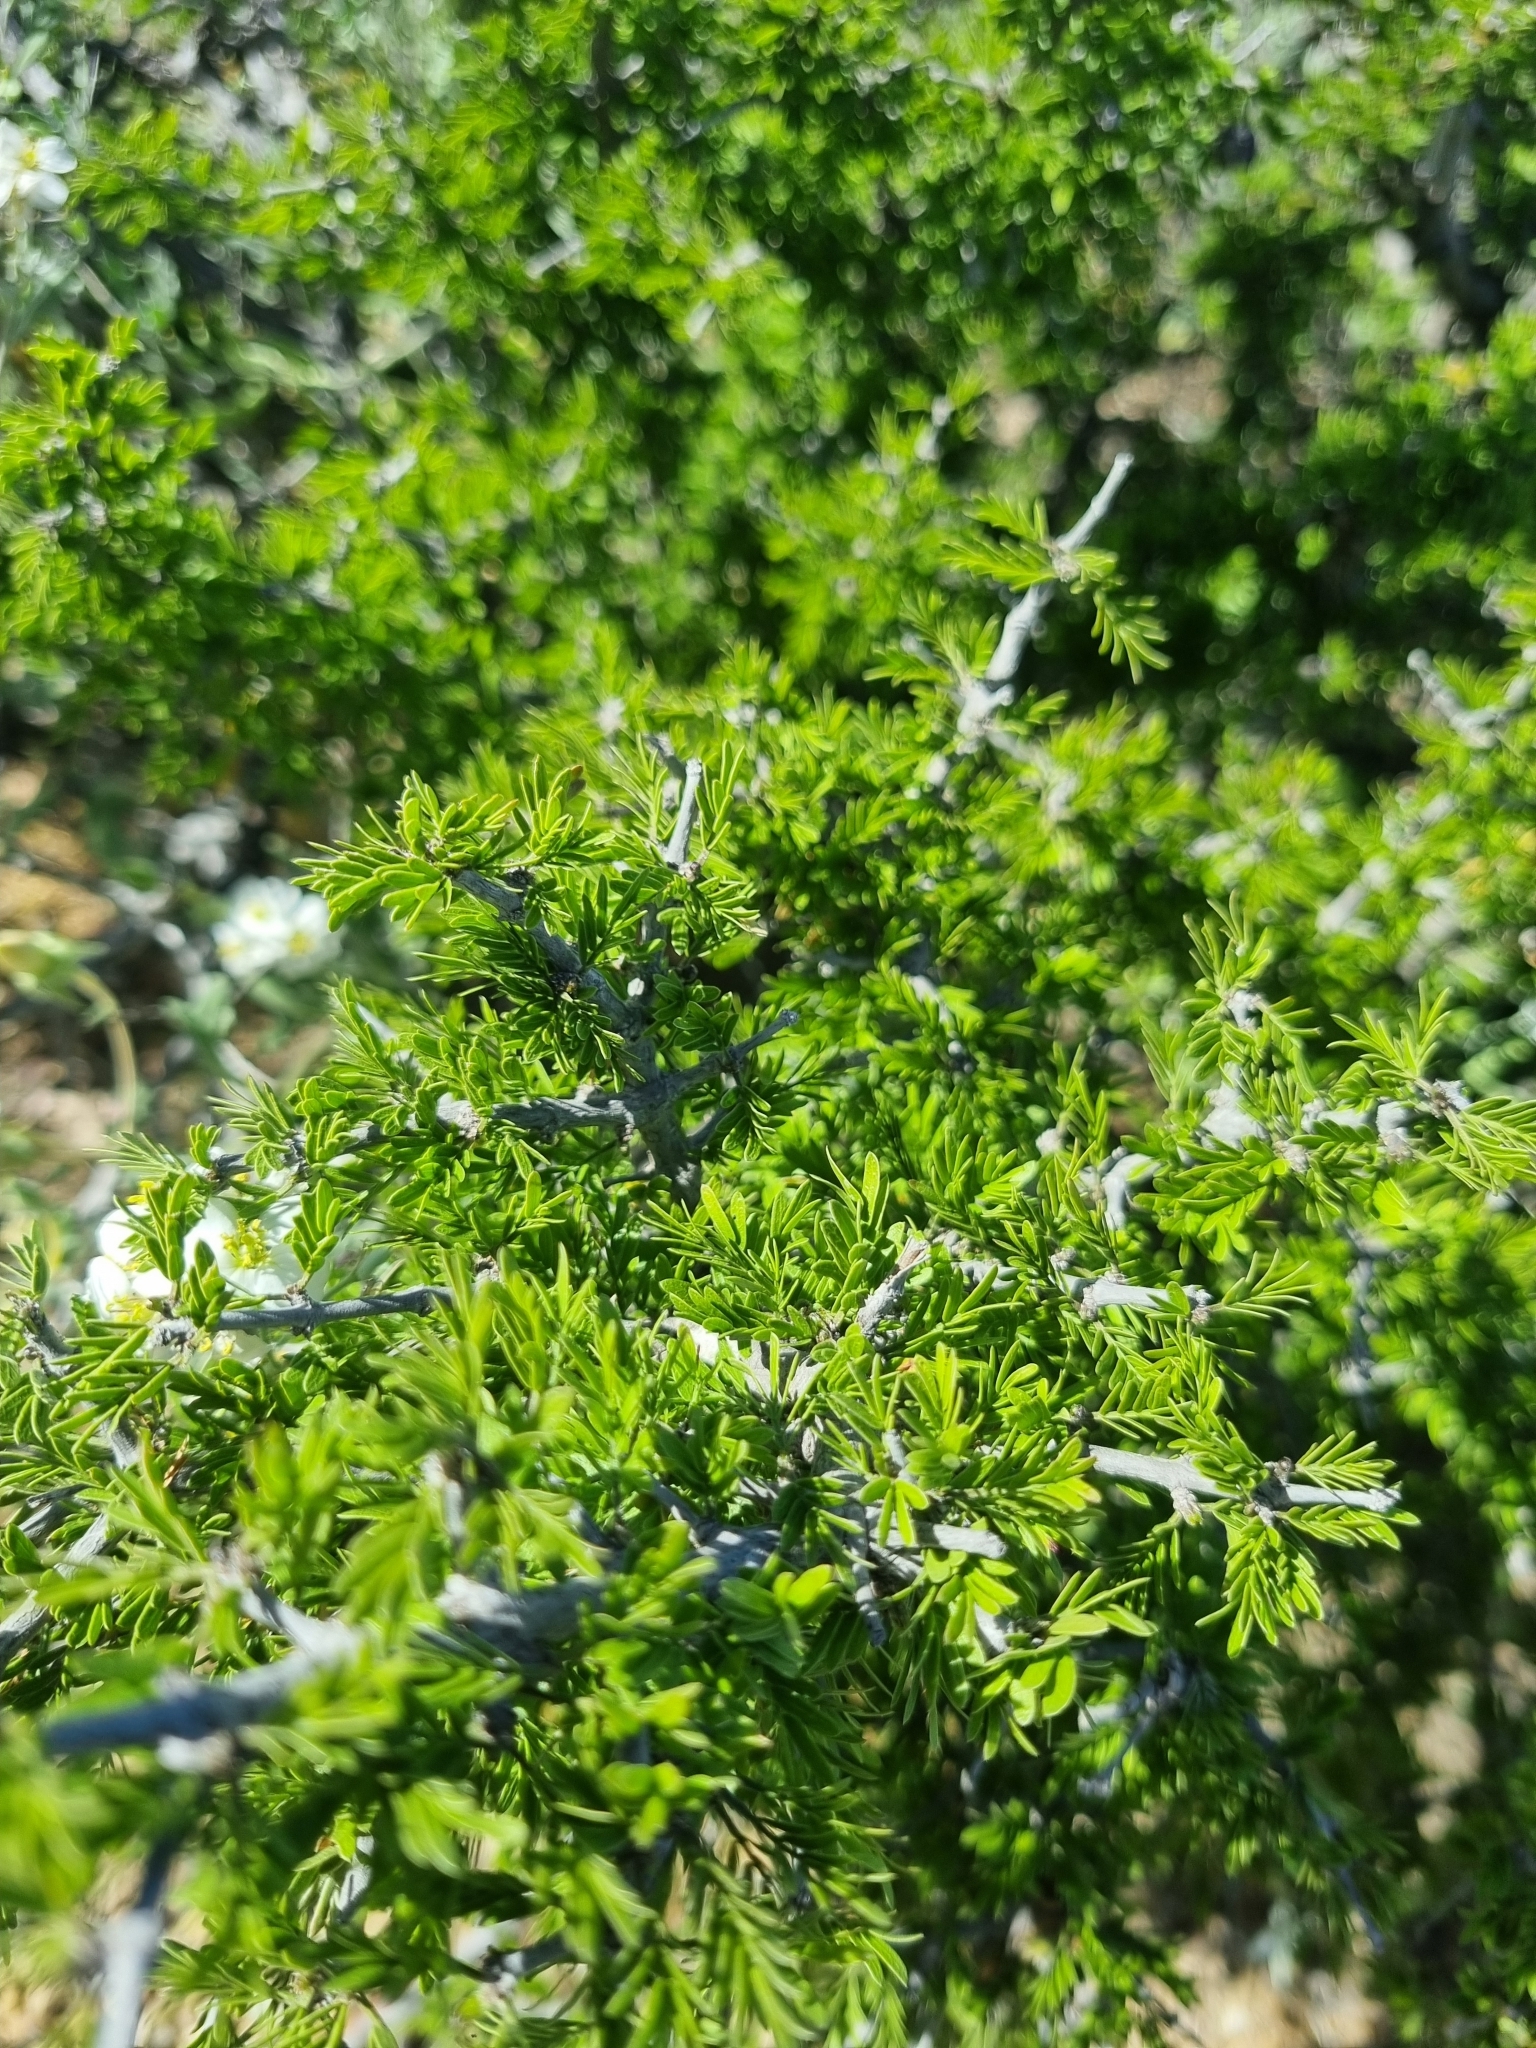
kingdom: Plantae
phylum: Tracheophyta
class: Magnoliopsida
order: Zygophyllales
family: Zygophyllaceae
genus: Porlieria
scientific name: Porlieria angustifolia
